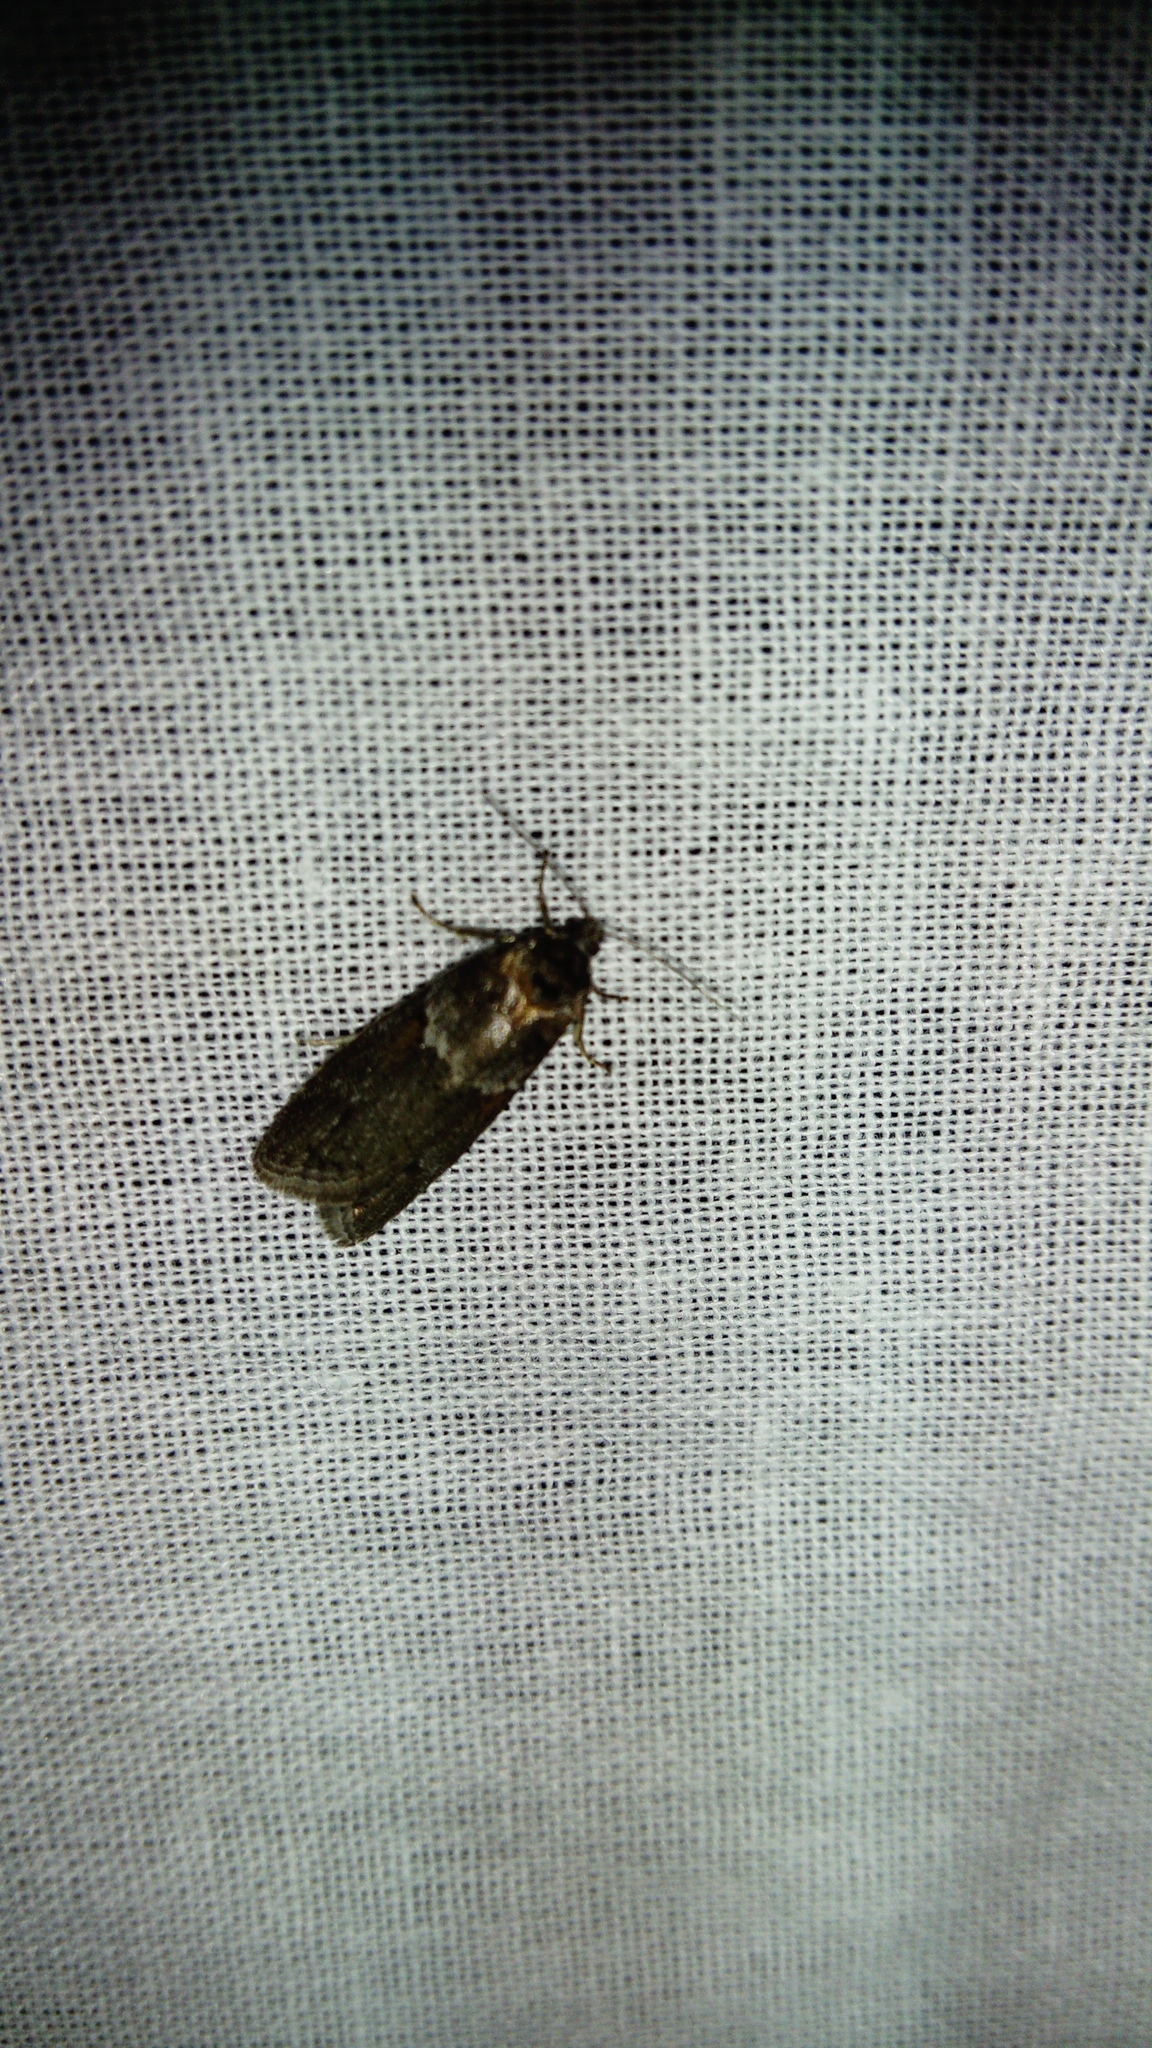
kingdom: Animalia
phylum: Arthropoda
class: Insecta
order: Lepidoptera
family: Tortricidae
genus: Tortricodes
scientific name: Tortricodes alternella
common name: Winter shade
